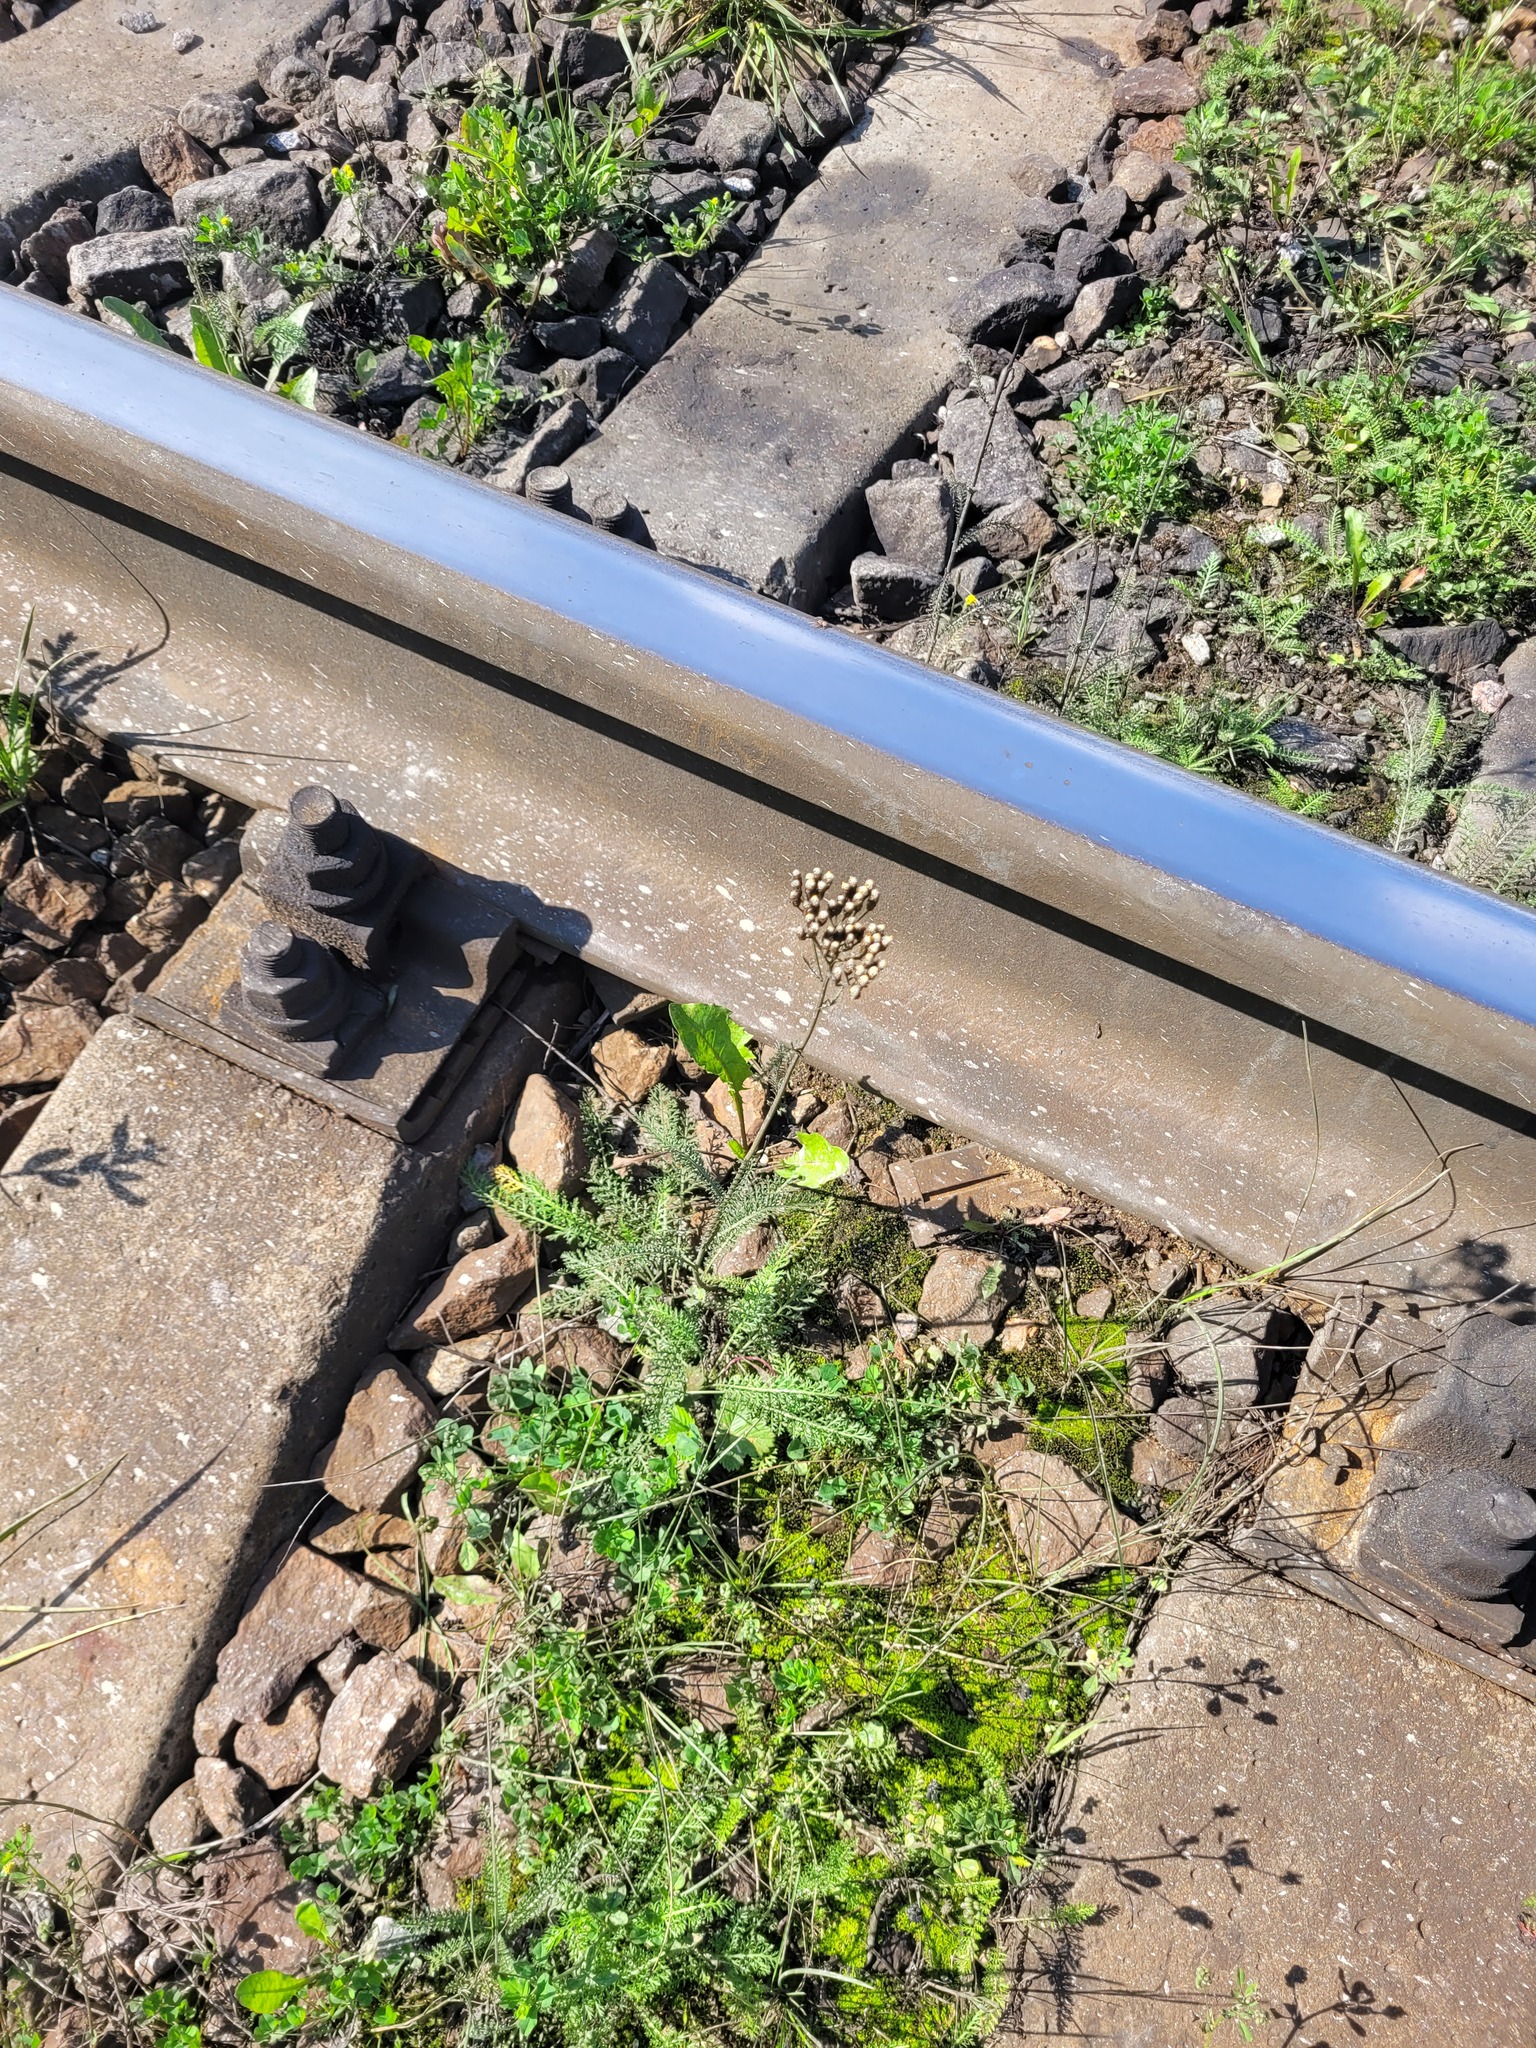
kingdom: Plantae
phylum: Tracheophyta
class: Magnoliopsida
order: Asterales
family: Asteraceae
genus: Achillea
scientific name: Achillea millefolium
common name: Yarrow
